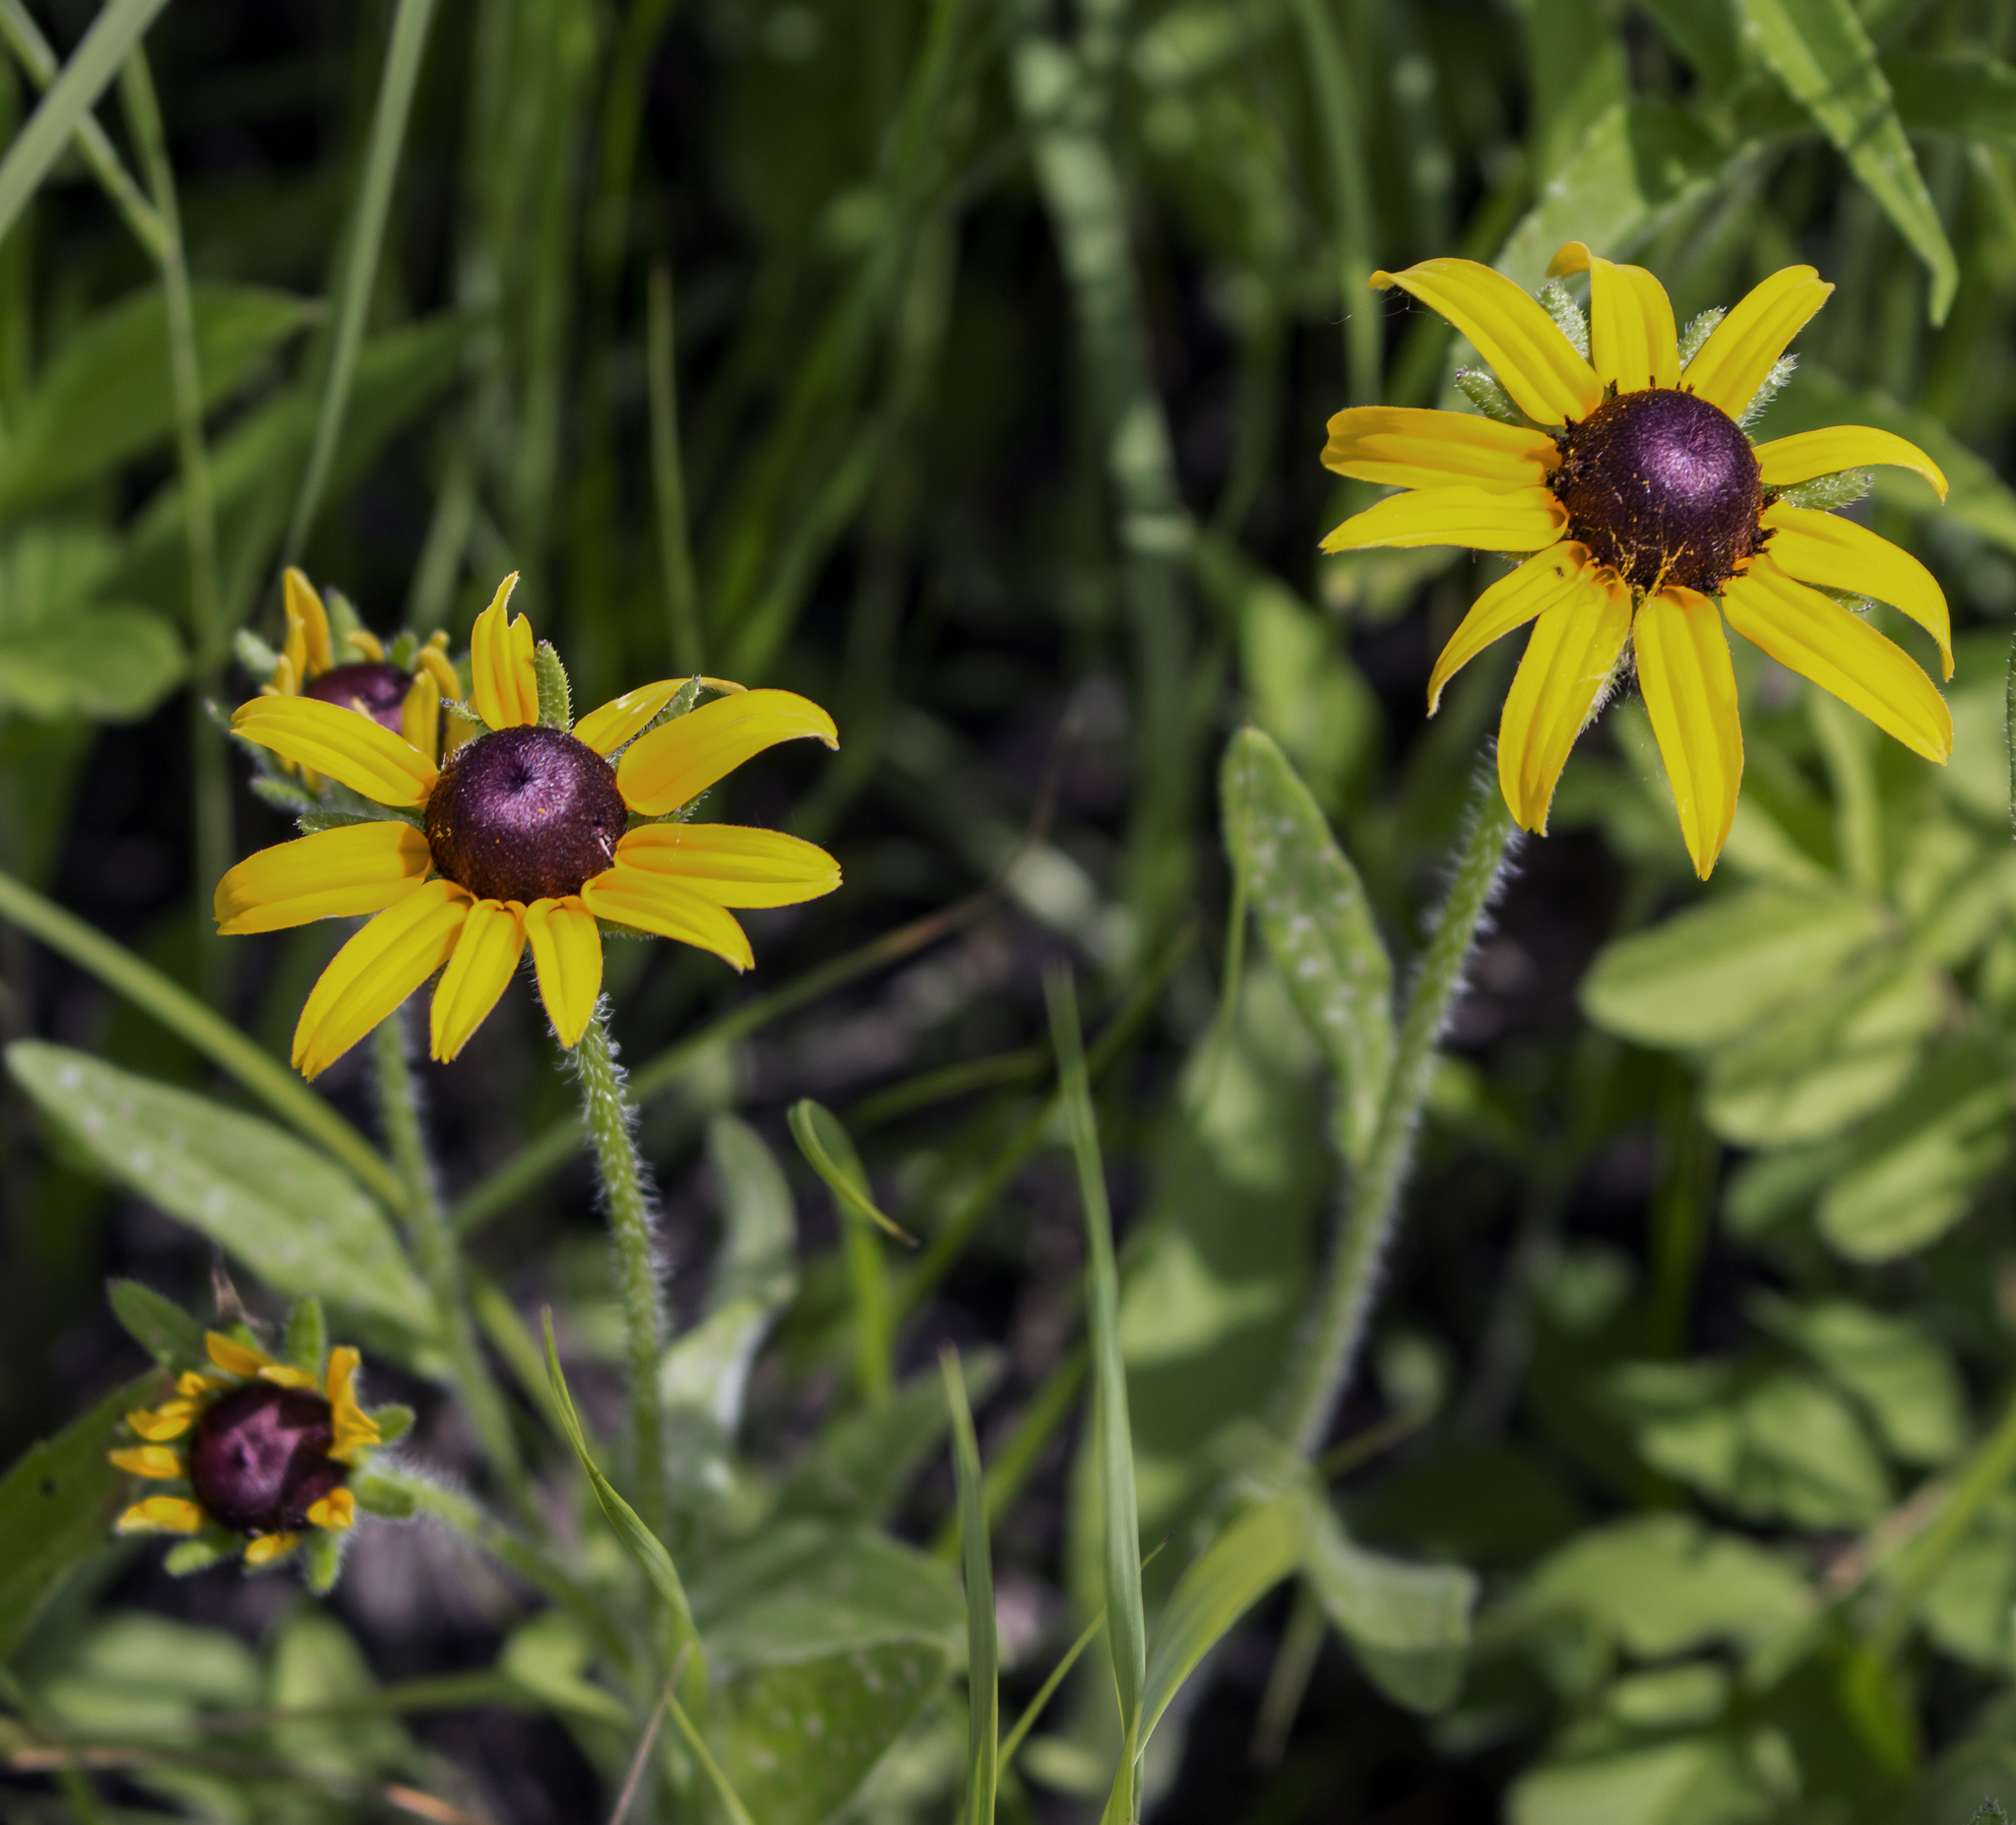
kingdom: Plantae
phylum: Tracheophyta
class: Magnoliopsida
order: Asterales
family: Asteraceae
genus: Rudbeckia
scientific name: Rudbeckia hirta
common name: Black-eyed-susan
